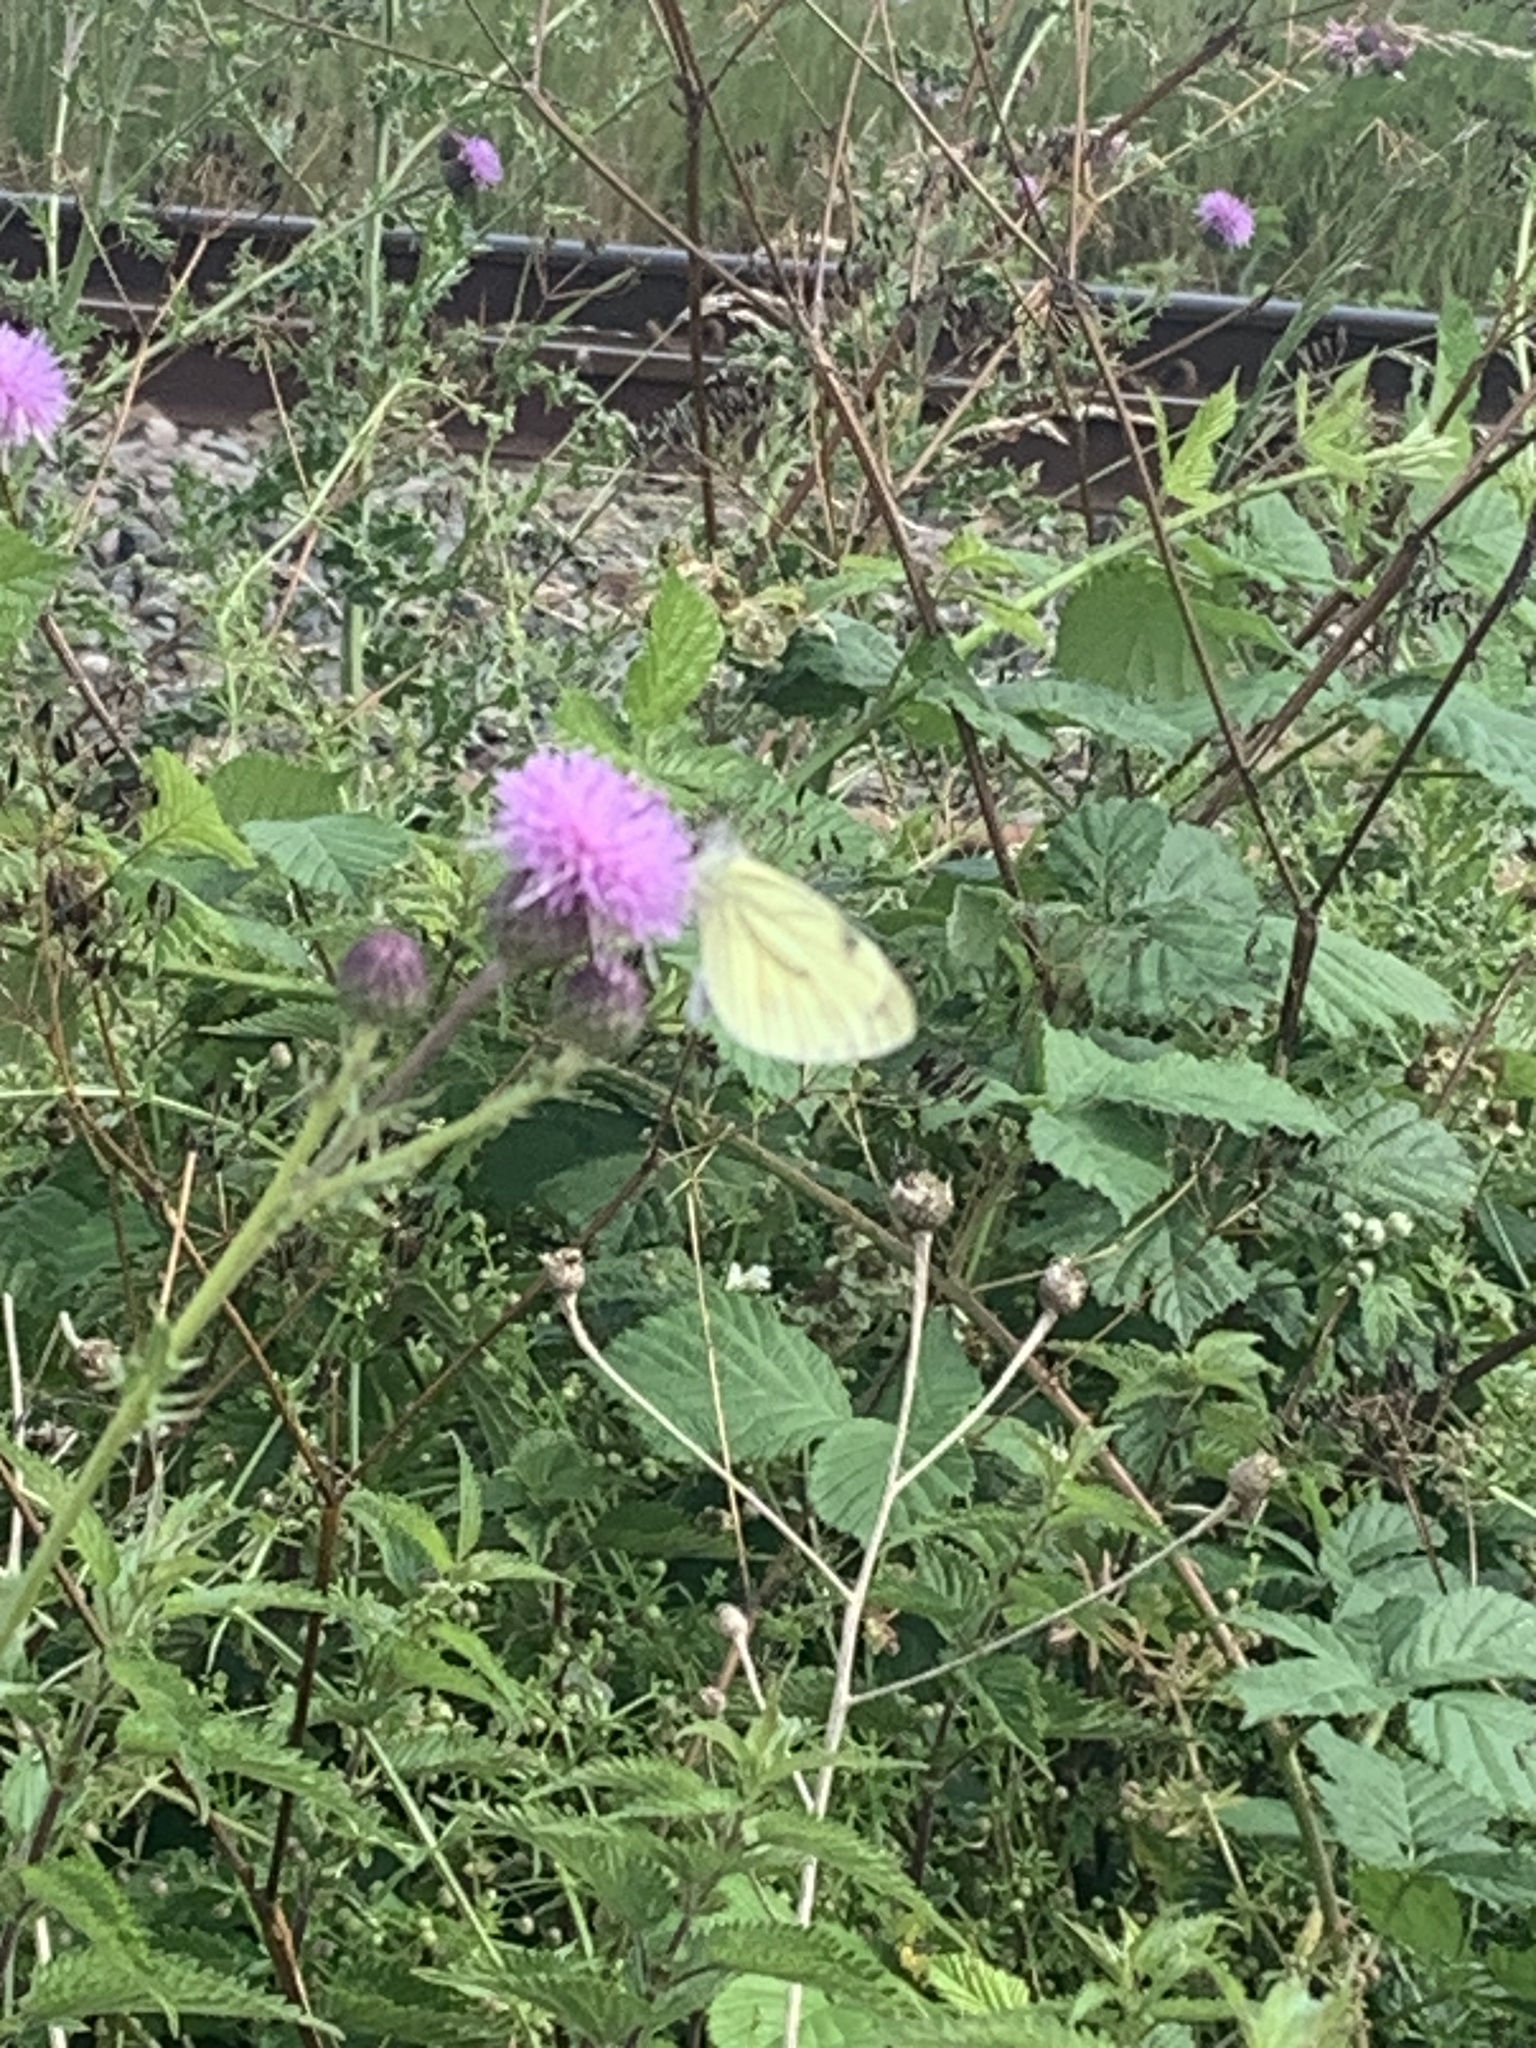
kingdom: Animalia
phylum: Arthropoda
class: Insecta
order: Lepidoptera
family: Pieridae
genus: Pieris
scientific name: Pieris napi
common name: Green-veined white
